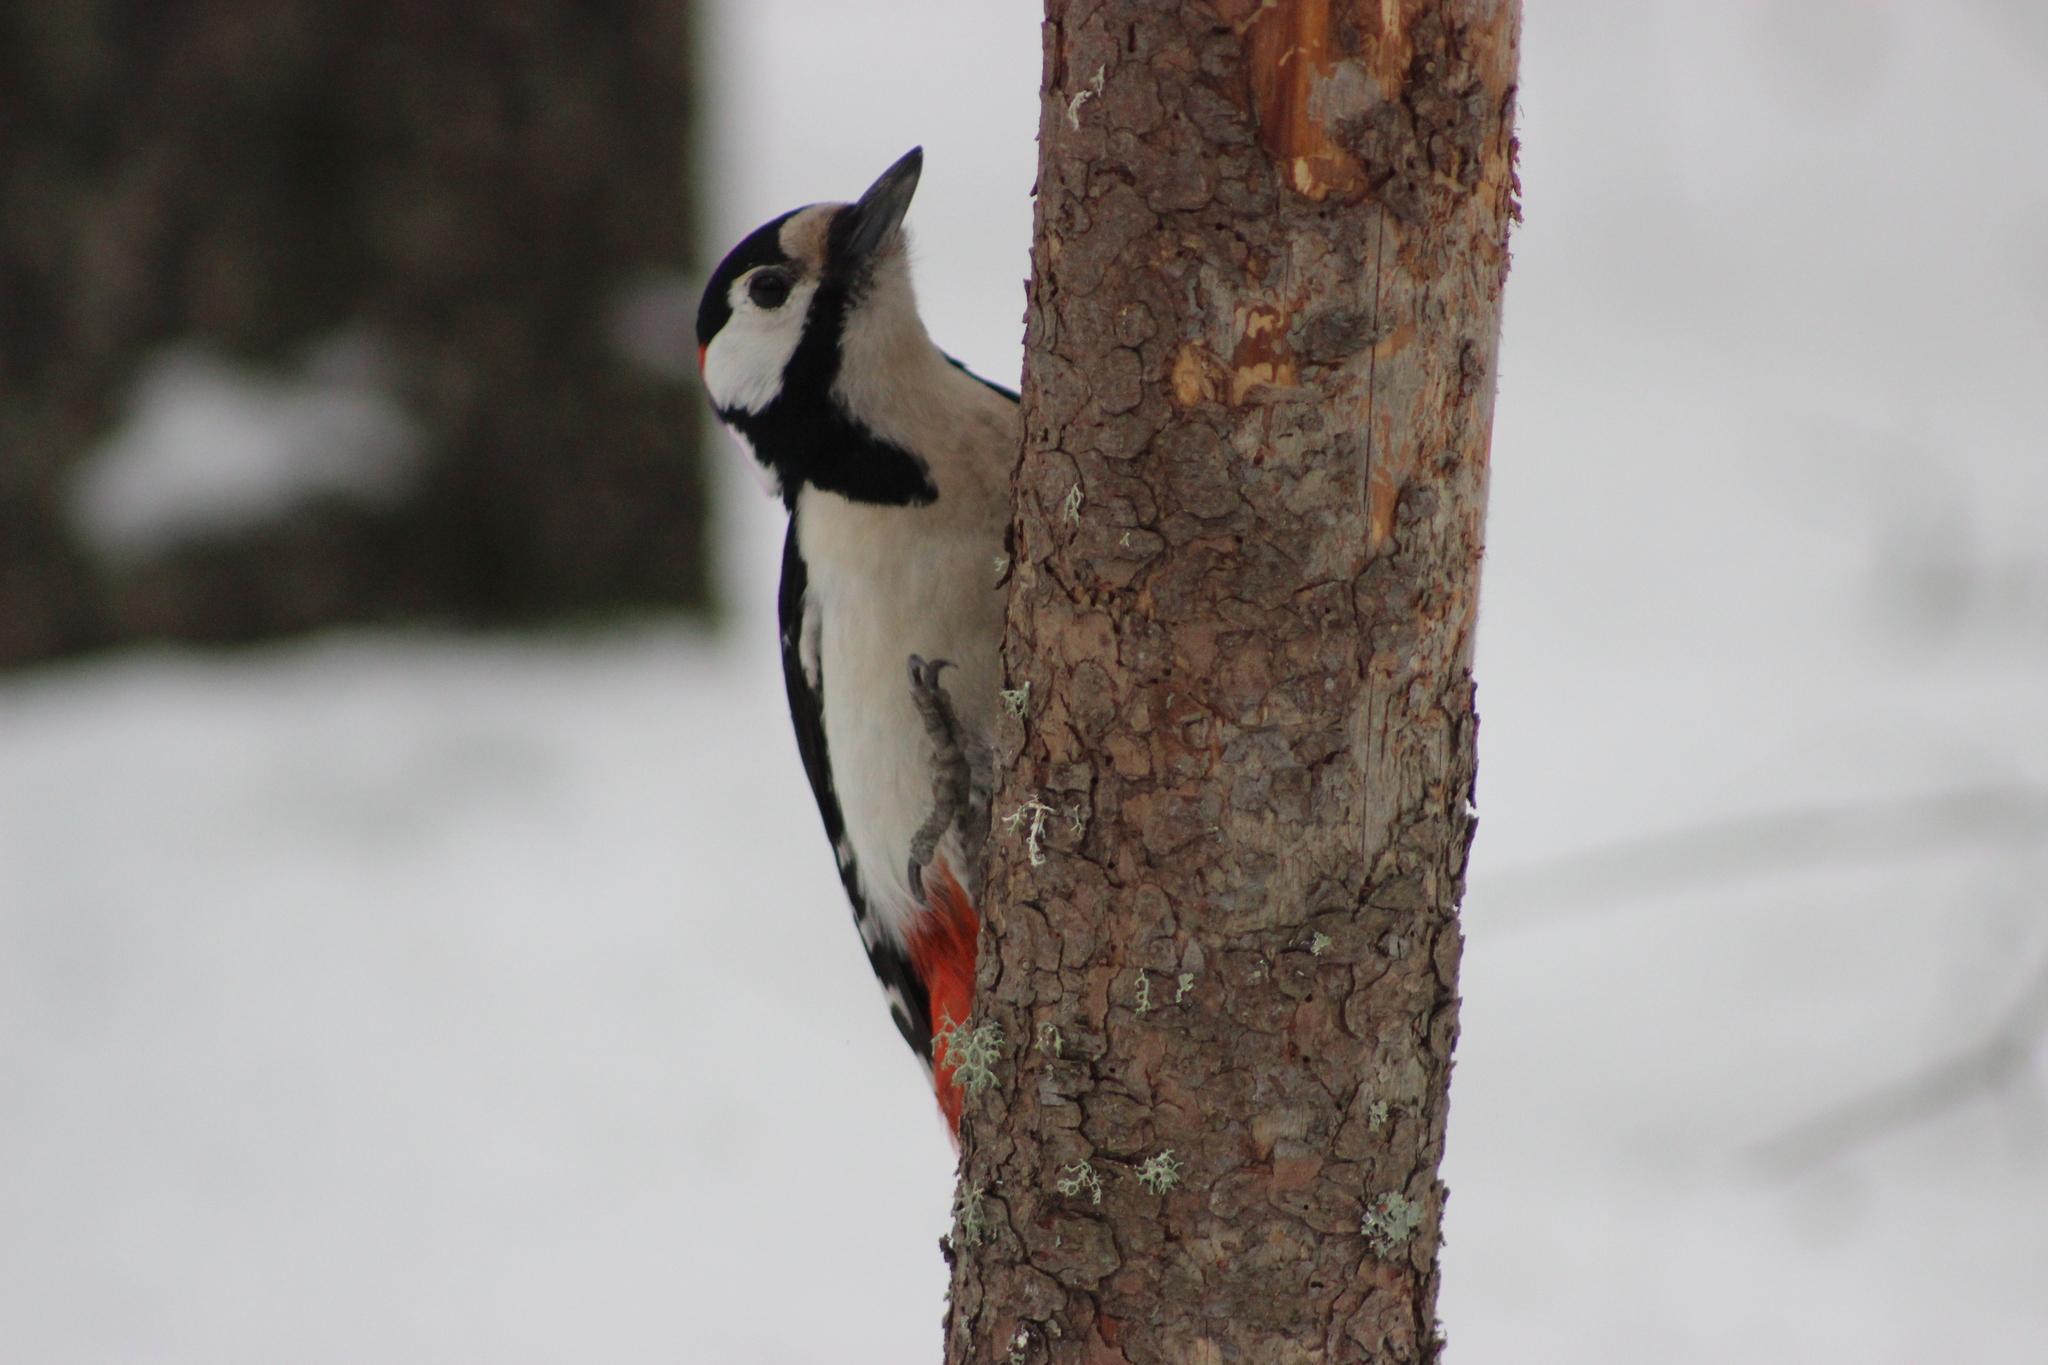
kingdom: Animalia
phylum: Chordata
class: Aves
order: Piciformes
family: Picidae
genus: Dendrocopos
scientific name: Dendrocopos major
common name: Great spotted woodpecker
